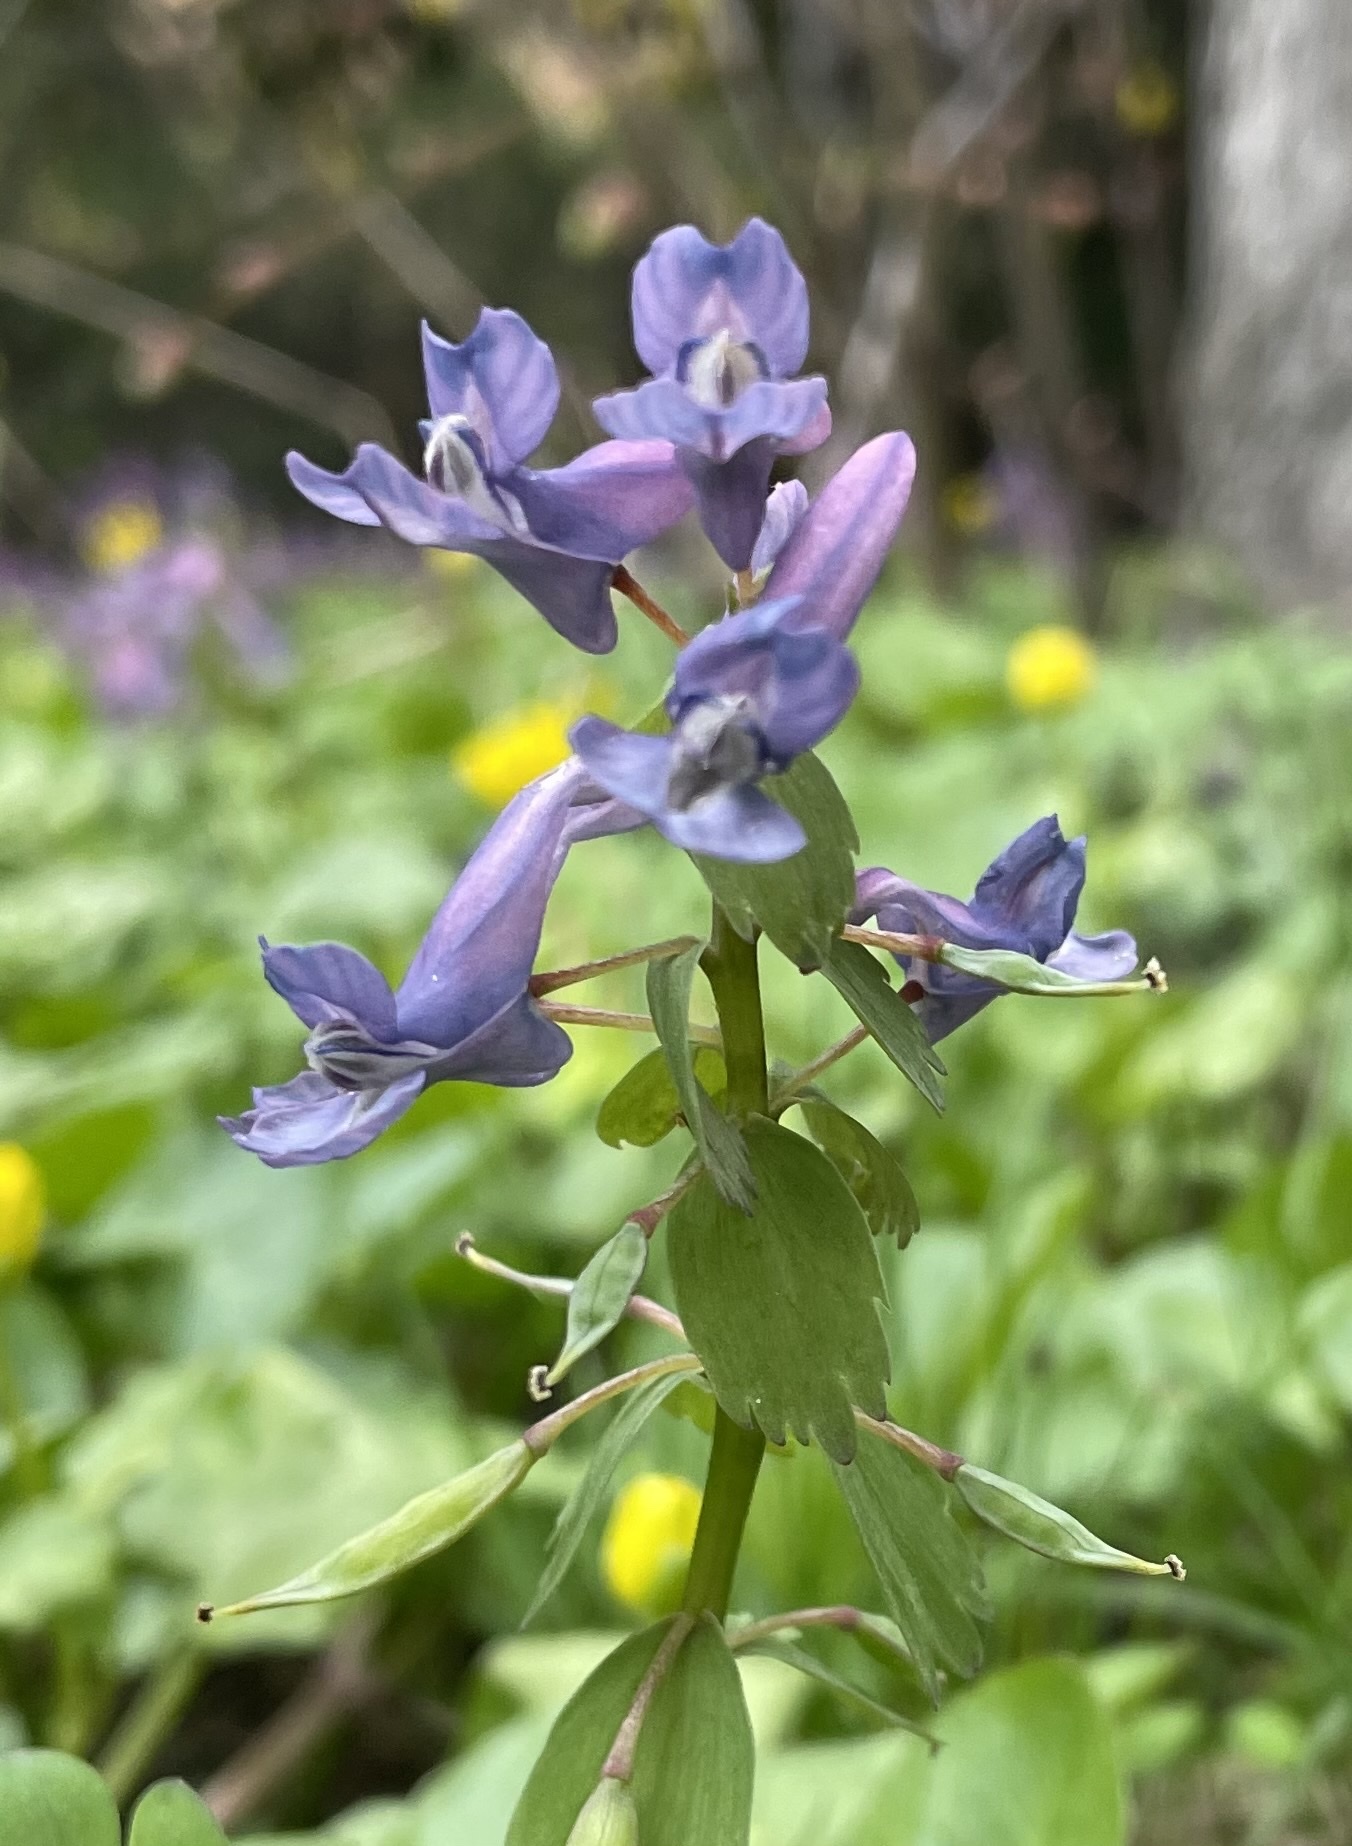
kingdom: Plantae
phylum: Tracheophyta
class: Magnoliopsida
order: Ranunculales
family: Papaveraceae
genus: Corydalis
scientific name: Corydalis solida
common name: Bird-in-a-bush
